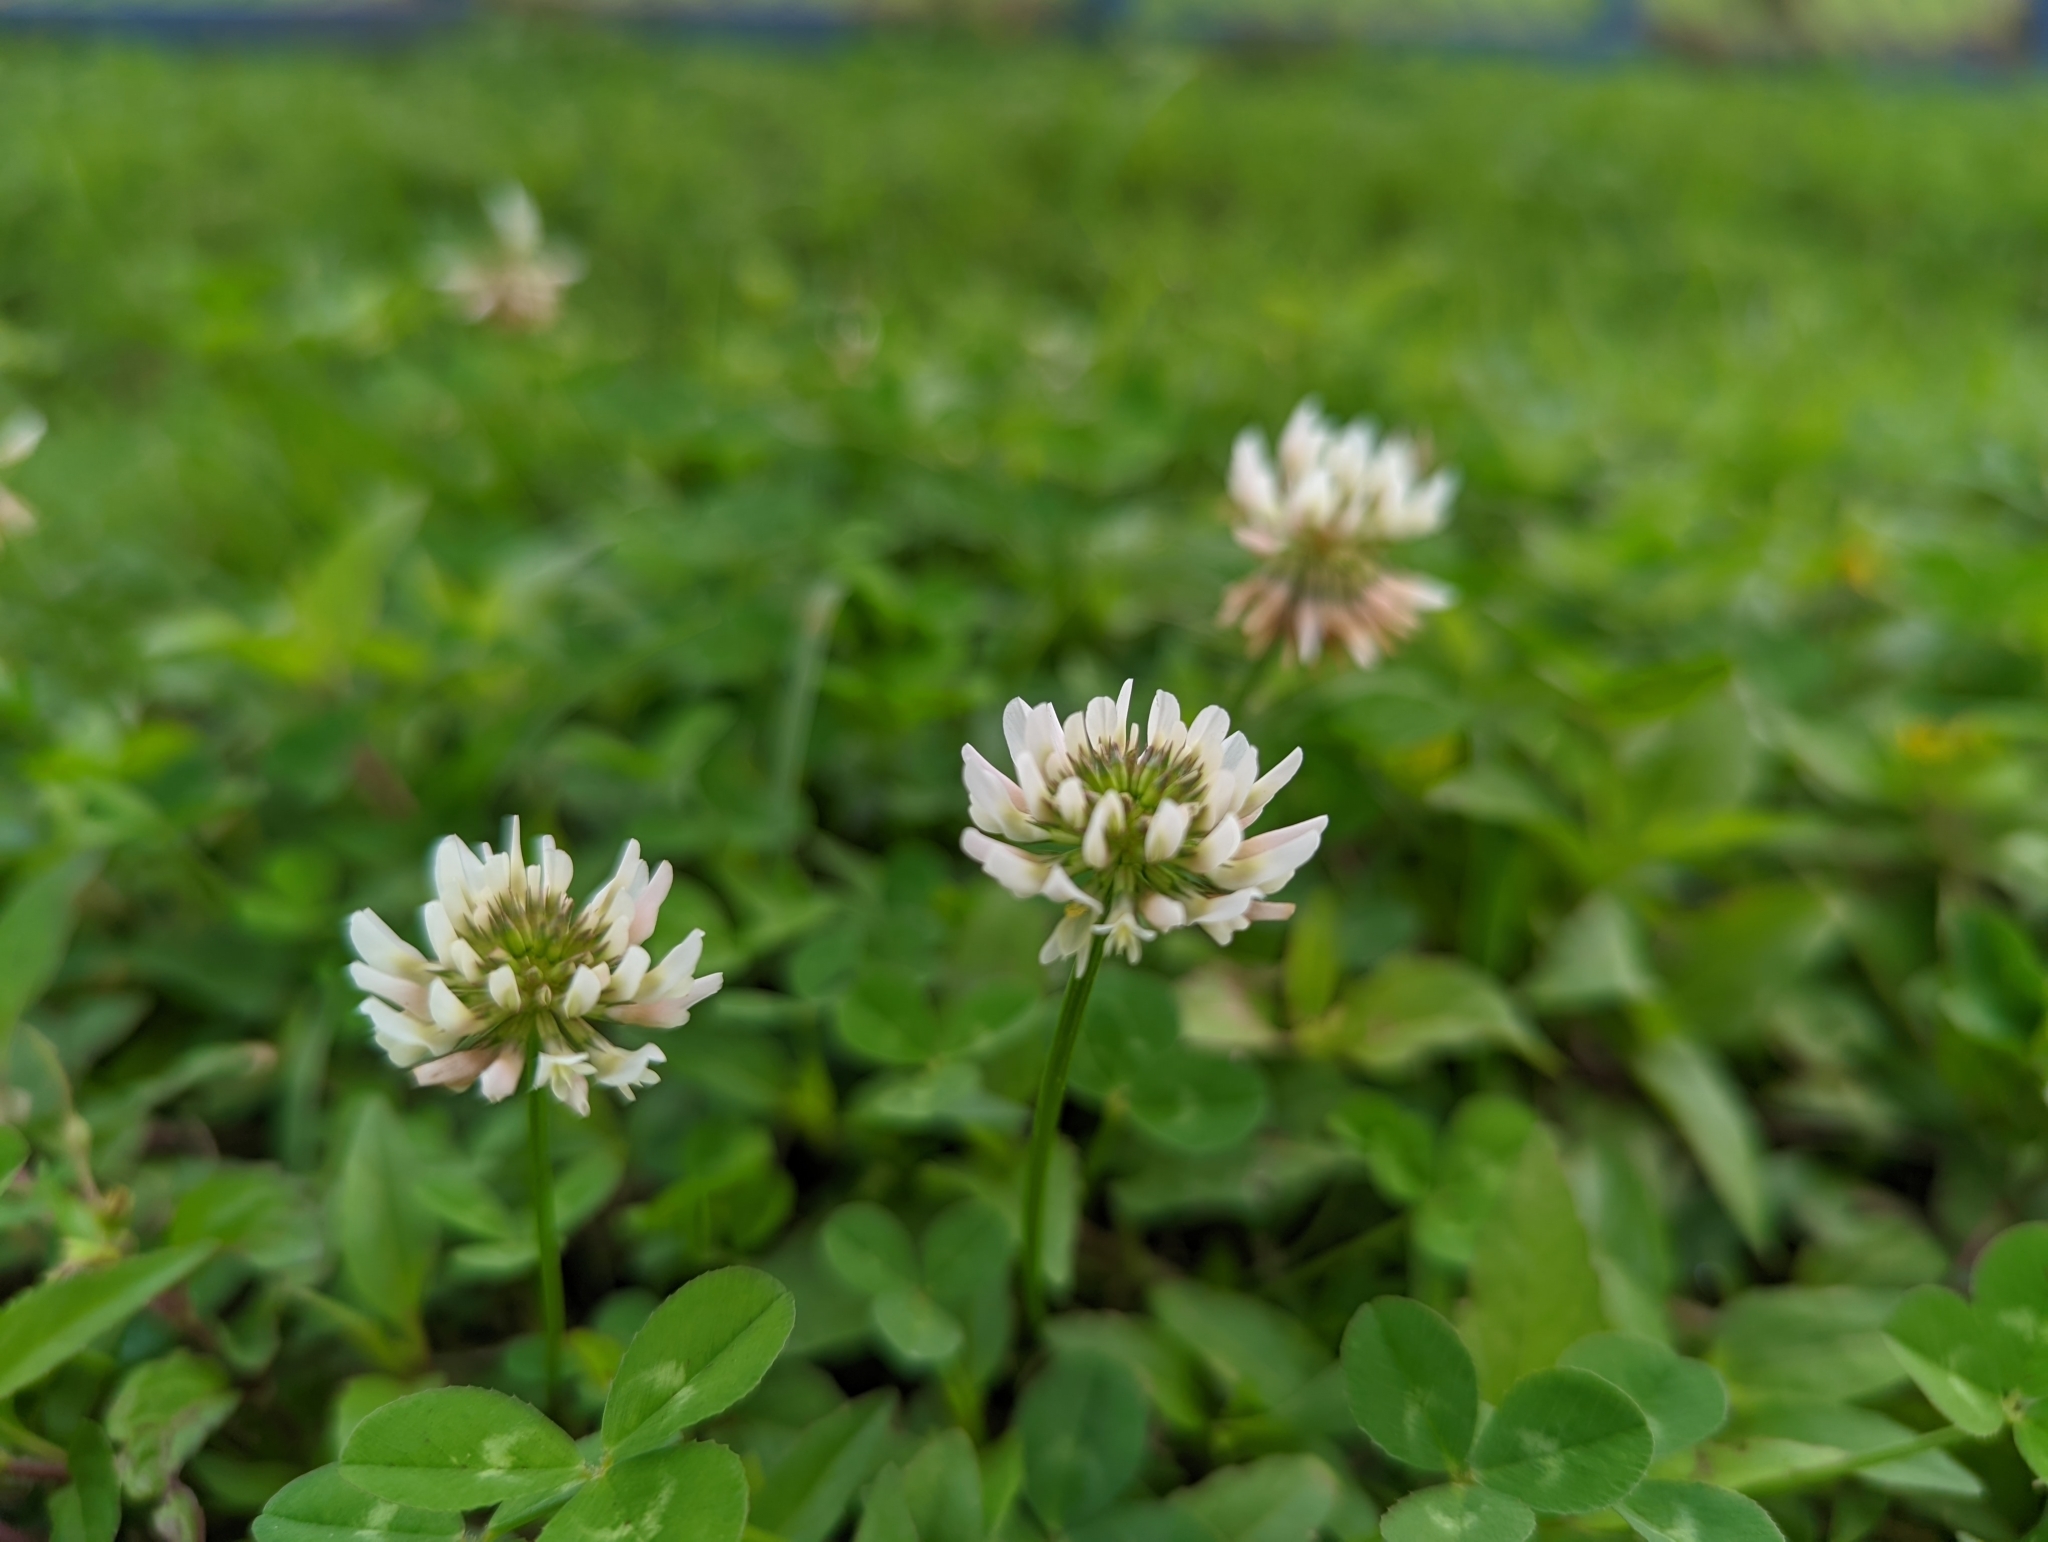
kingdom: Plantae
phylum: Tracheophyta
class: Magnoliopsida
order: Fabales
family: Fabaceae
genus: Trifolium
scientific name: Trifolium repens
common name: White clover
